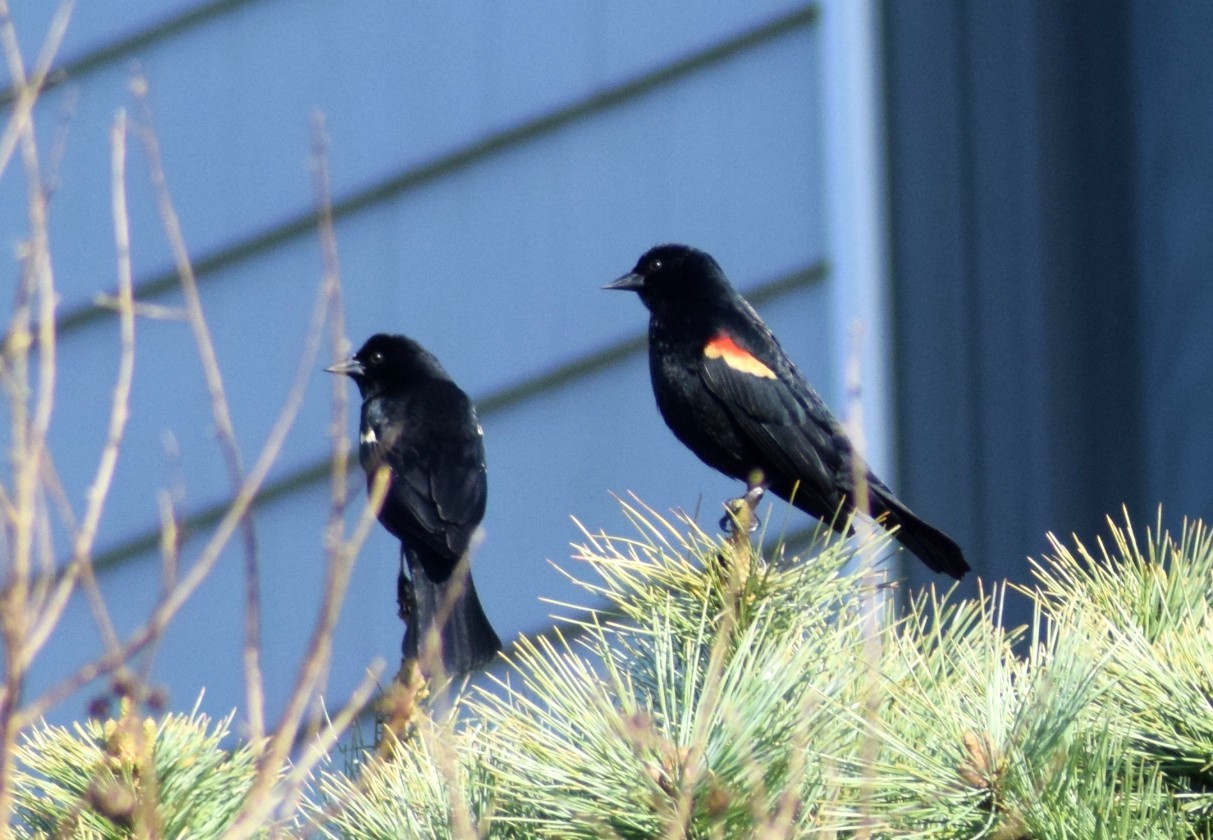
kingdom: Animalia
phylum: Chordata
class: Aves
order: Passeriformes
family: Icteridae
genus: Agelaius
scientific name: Agelaius phoeniceus
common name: Red-winged blackbird
